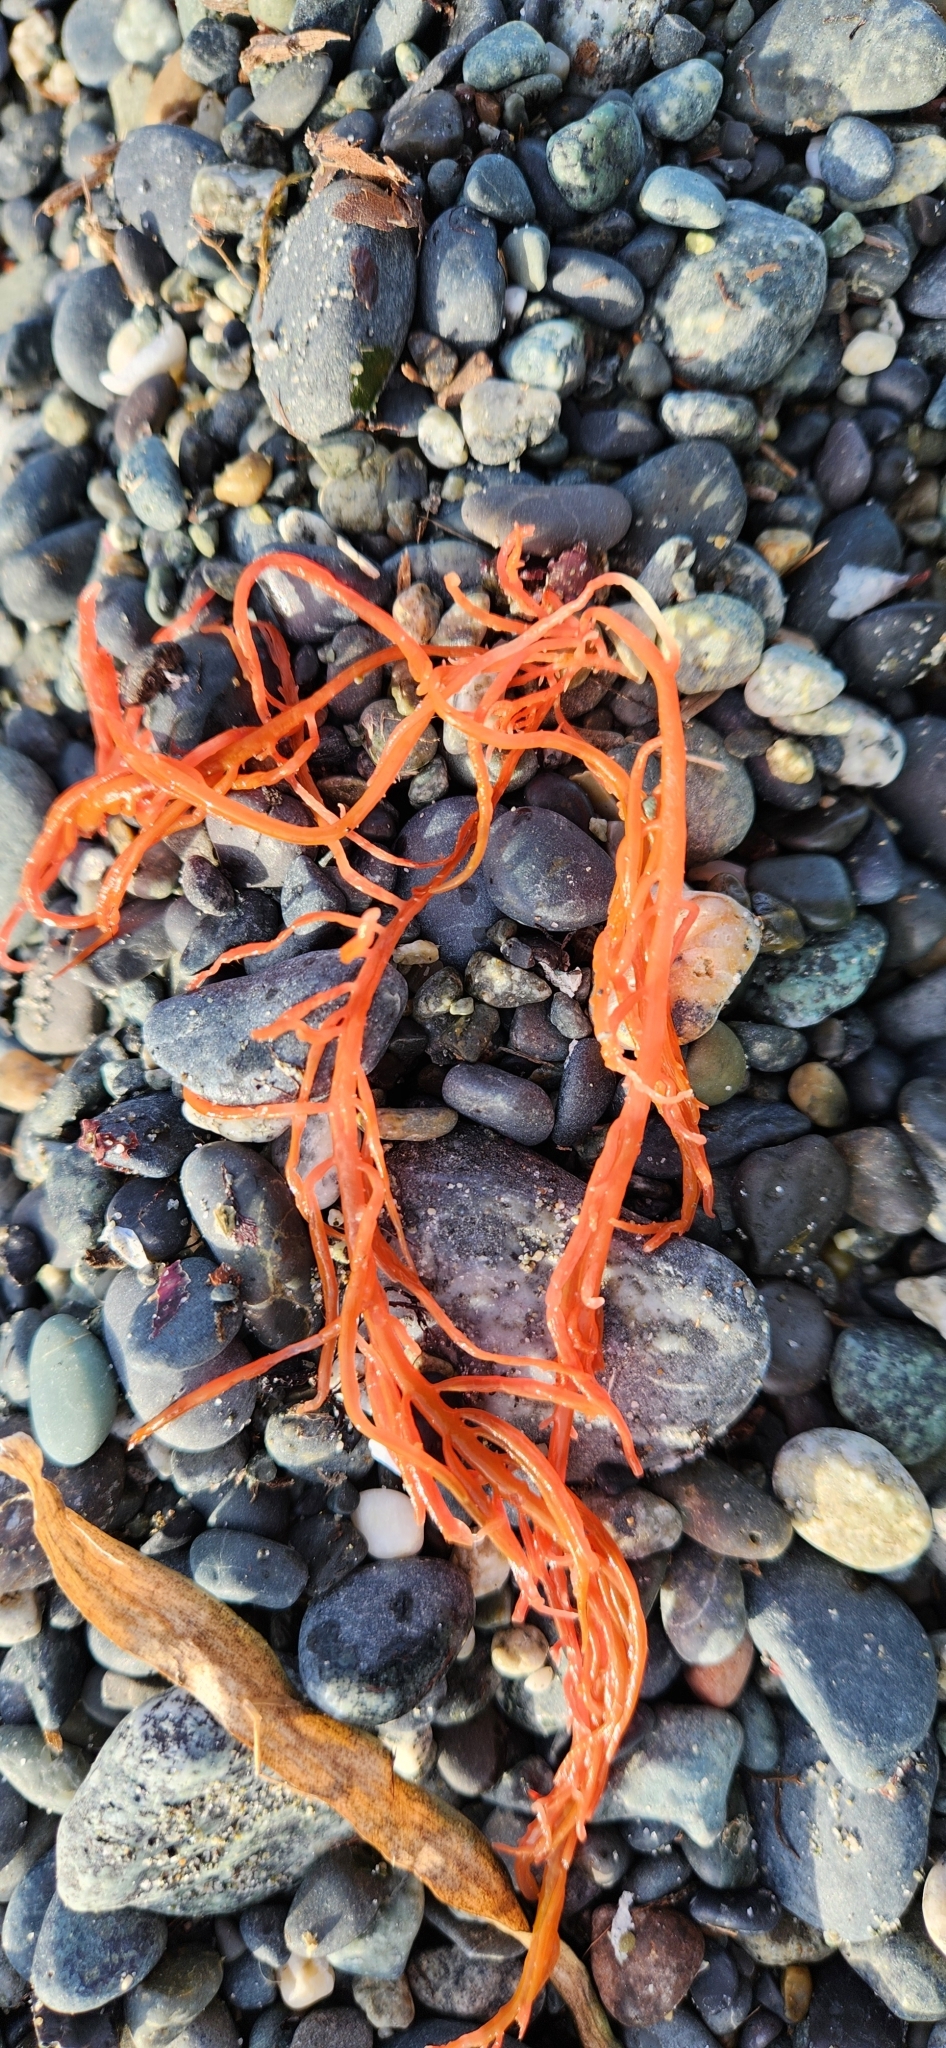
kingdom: Plantae
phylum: Rhodophyta
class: Florideophyceae
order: Gigartinales
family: Solieriaceae
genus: Sarcodiotheca
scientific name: Sarcodiotheca gaudichaudii
